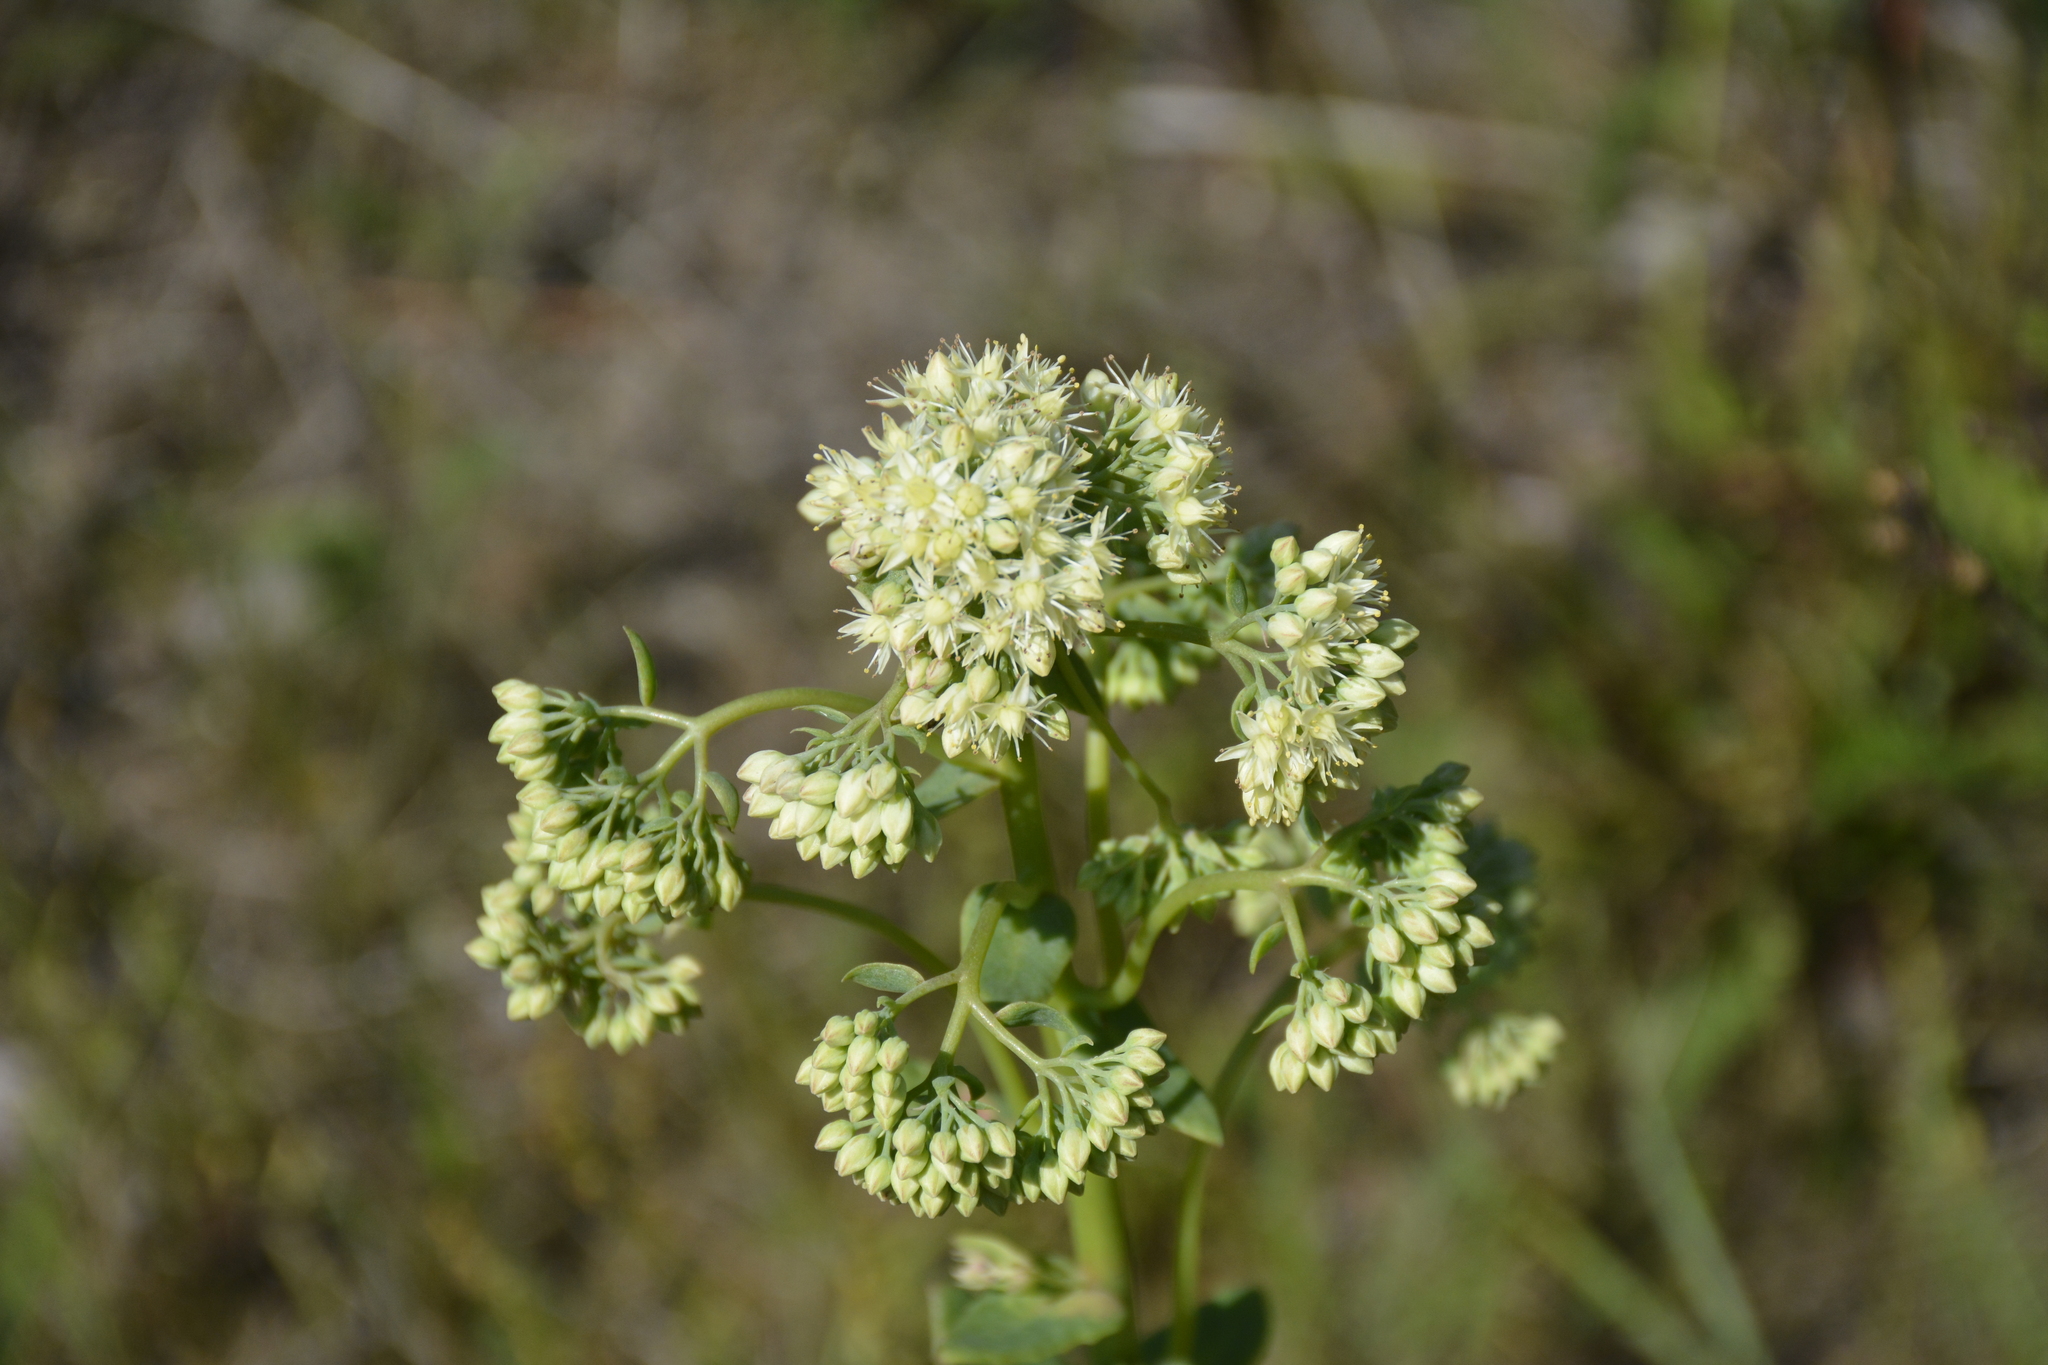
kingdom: Plantae
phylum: Tracheophyta
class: Magnoliopsida
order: Saxifragales
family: Crassulaceae
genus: Hylotelephium
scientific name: Hylotelephium maximum
